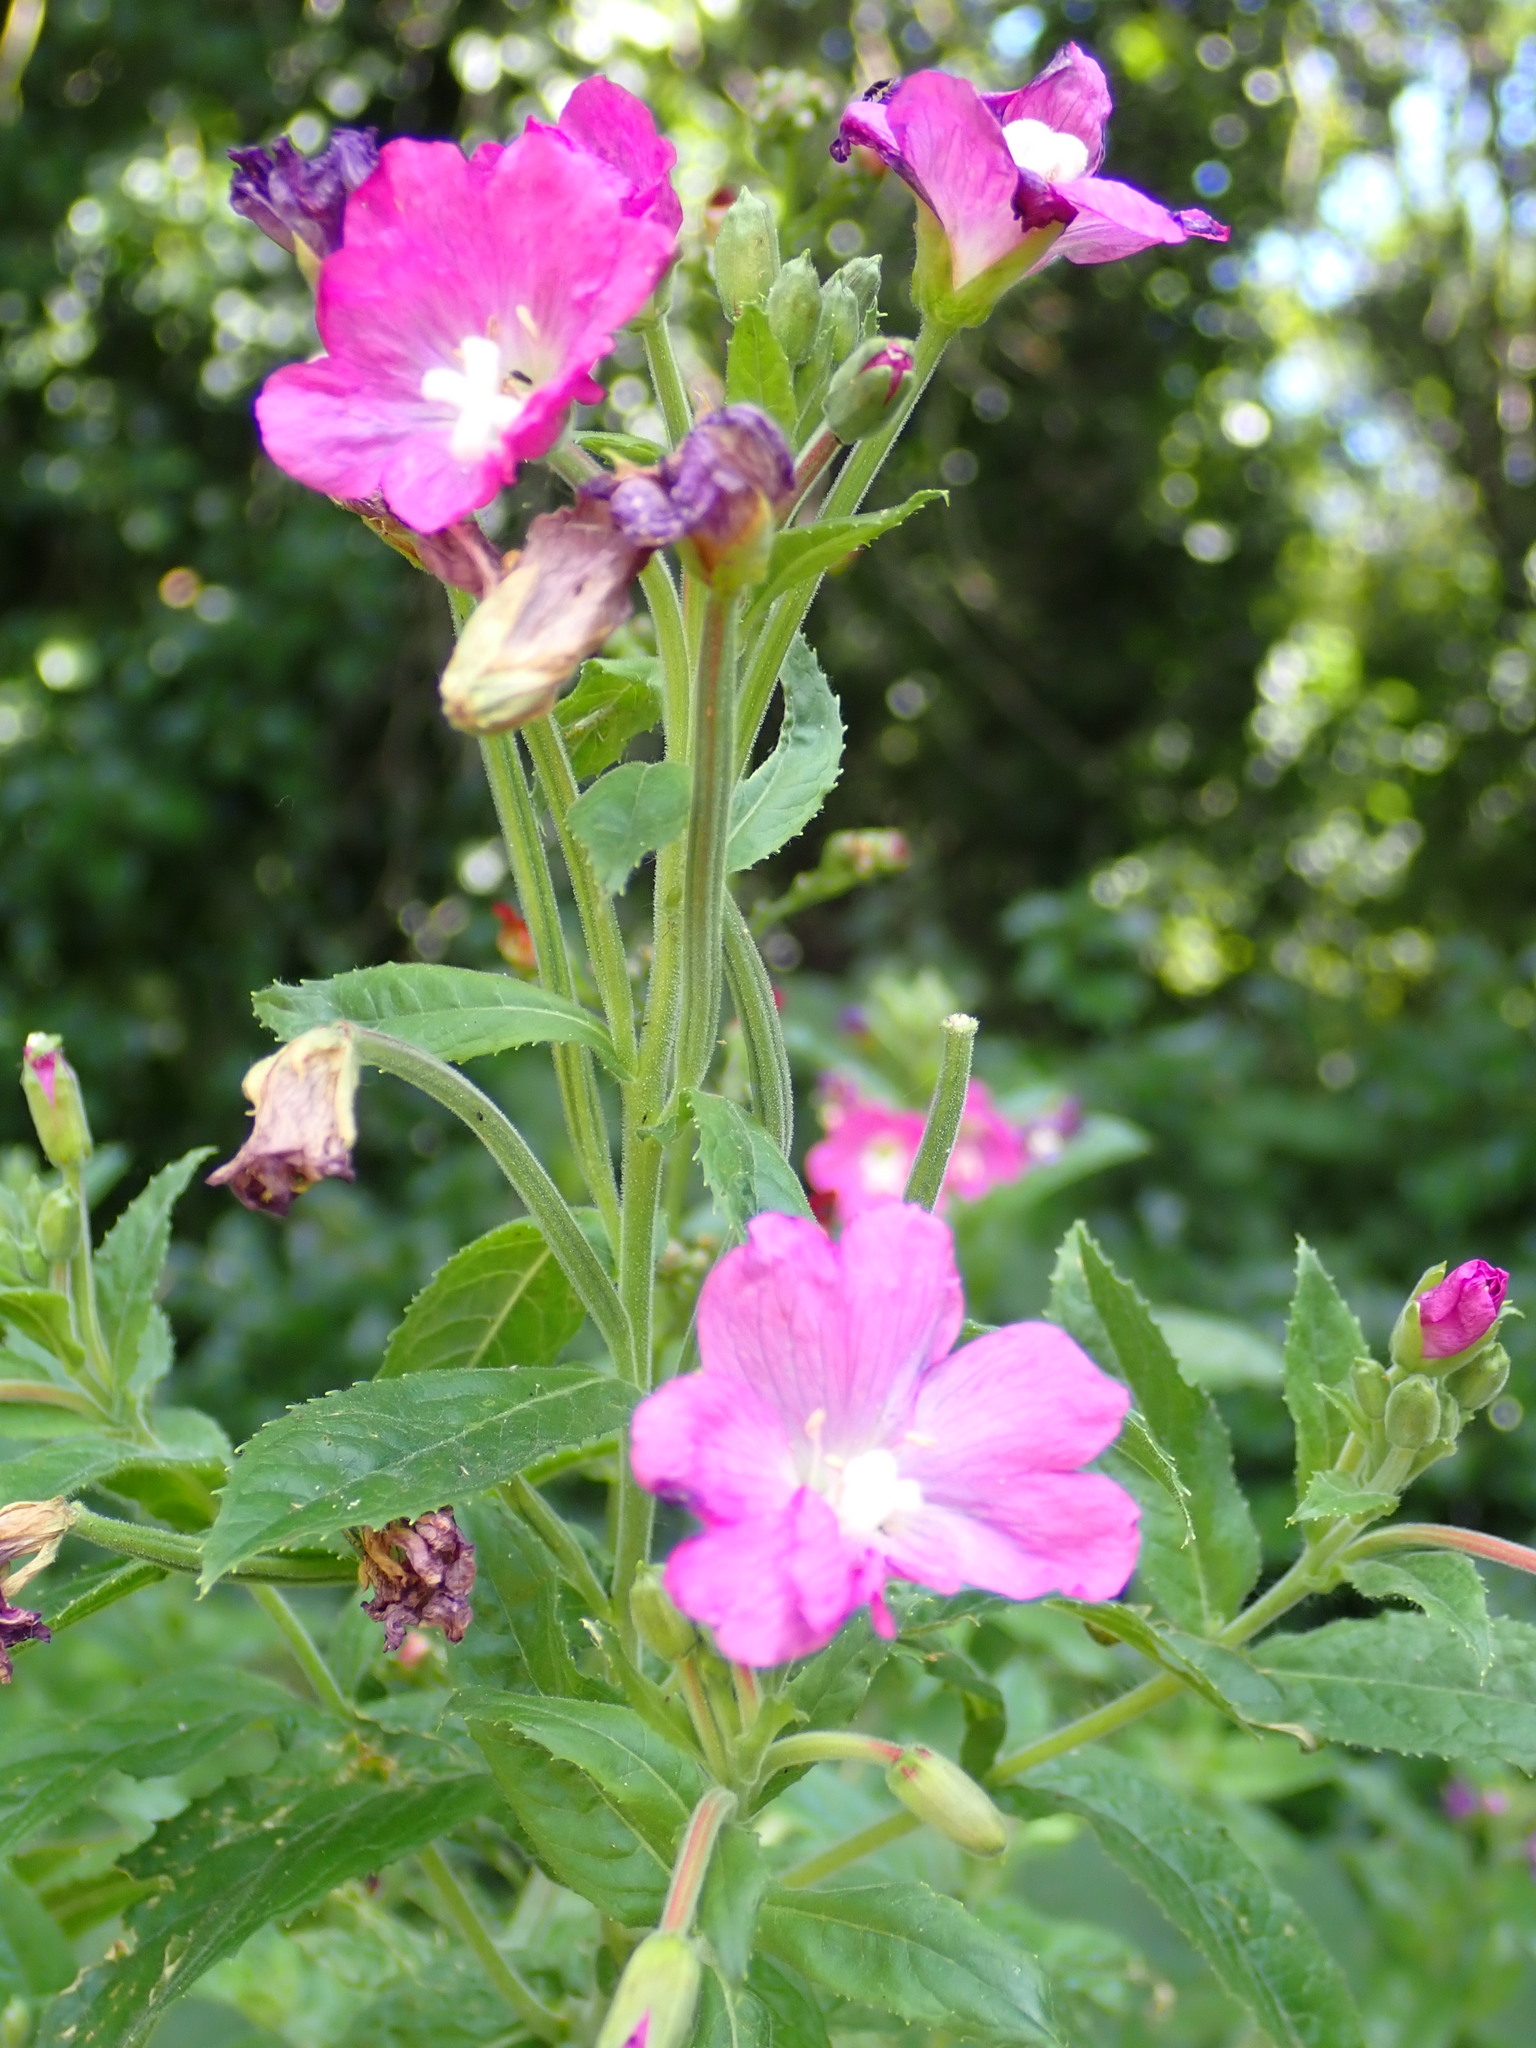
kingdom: Plantae
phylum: Tracheophyta
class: Magnoliopsida
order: Myrtales
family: Onagraceae
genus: Epilobium
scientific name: Epilobium hirsutum
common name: Great willowherb
